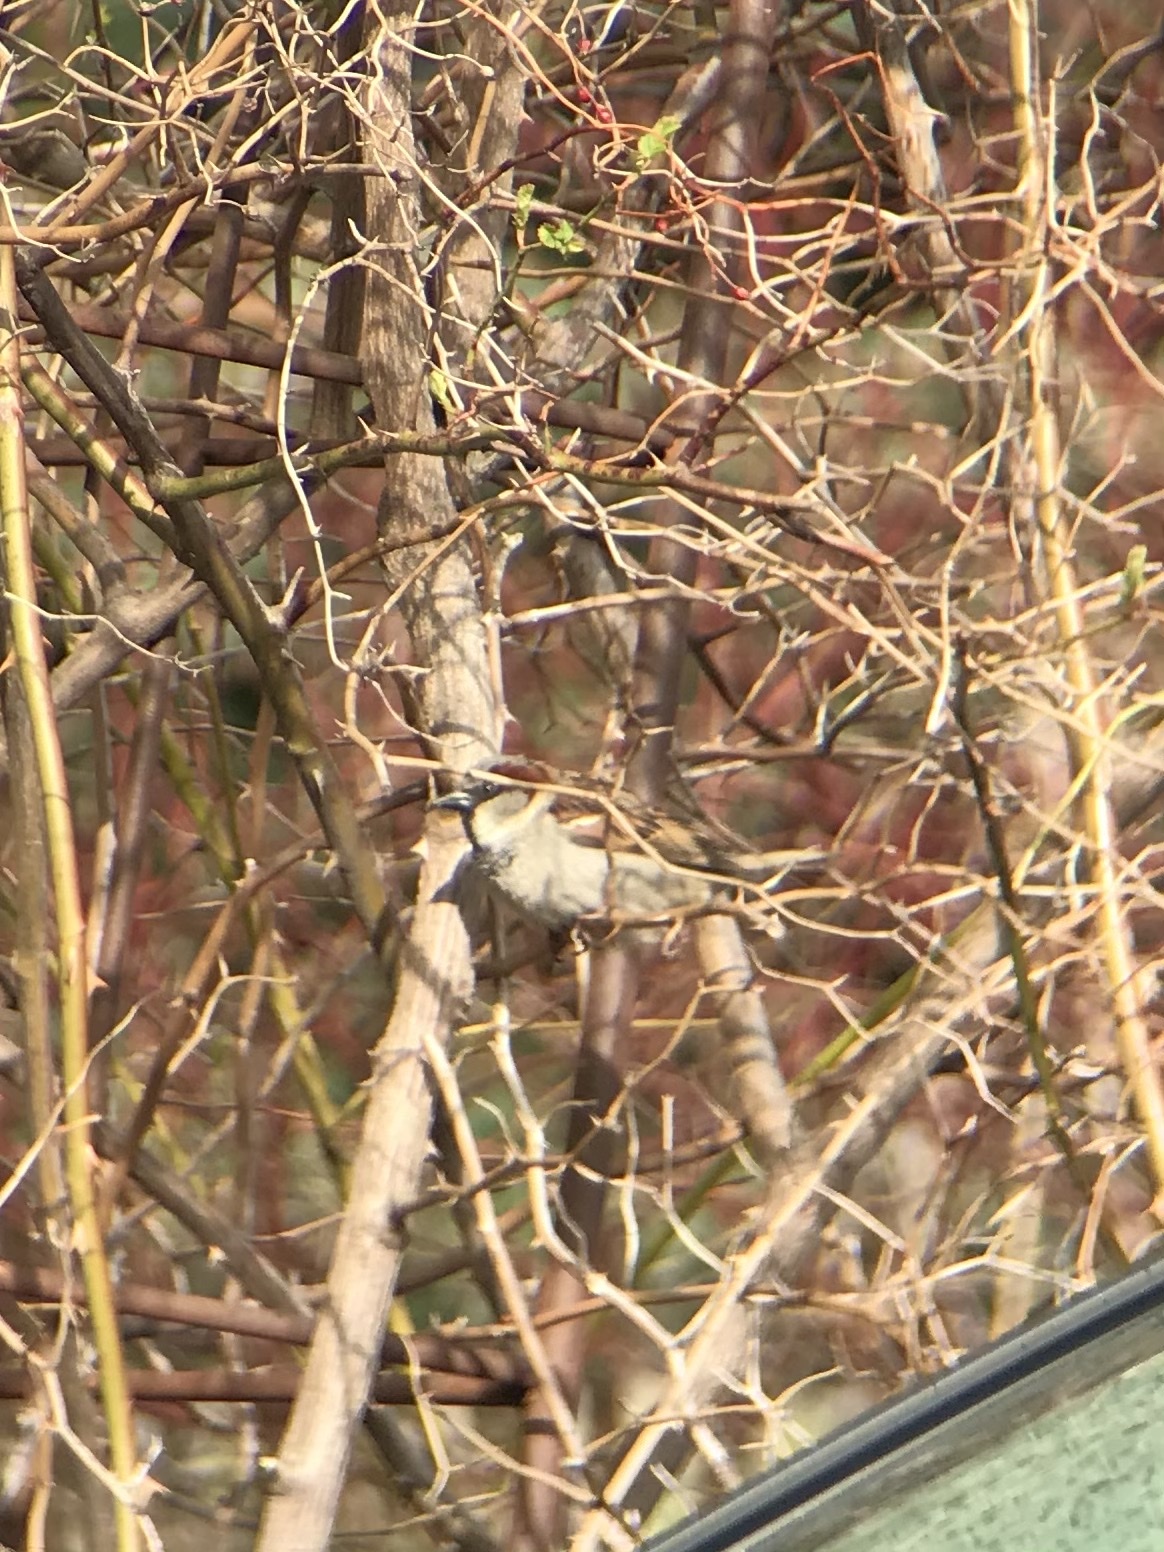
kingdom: Animalia
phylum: Chordata
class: Aves
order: Passeriformes
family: Passeridae
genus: Passer
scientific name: Passer domesticus
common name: House sparrow
